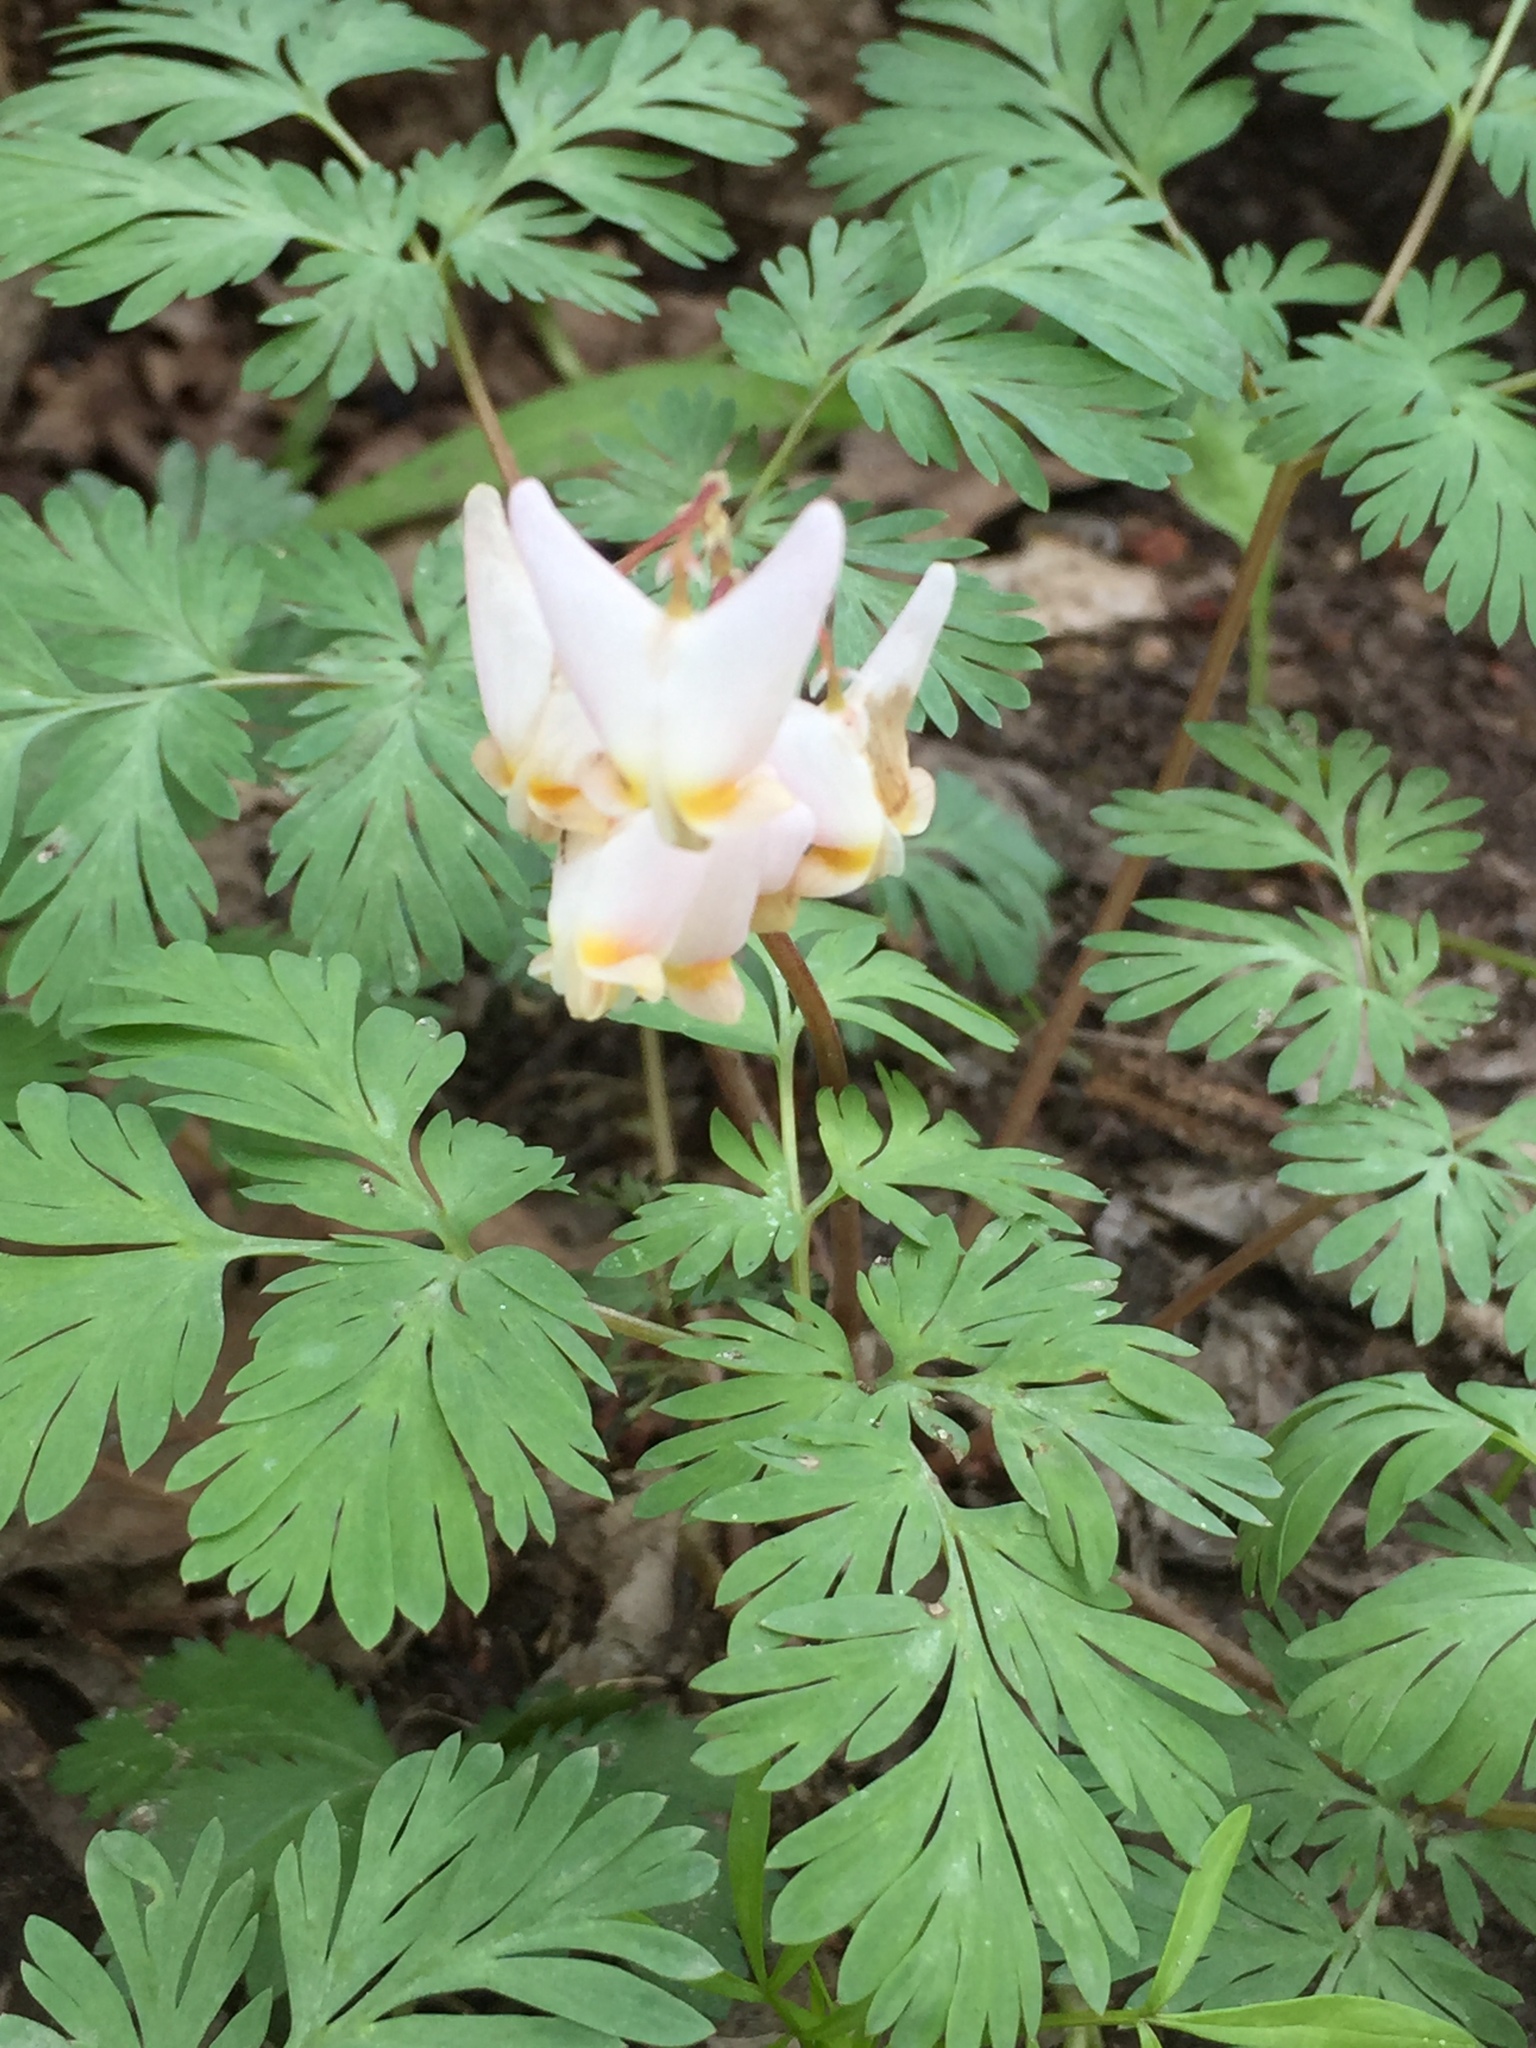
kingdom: Plantae
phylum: Tracheophyta
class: Magnoliopsida
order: Ranunculales
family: Papaveraceae
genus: Dicentra
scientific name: Dicentra cucullaria
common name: Dutchman's breeches
